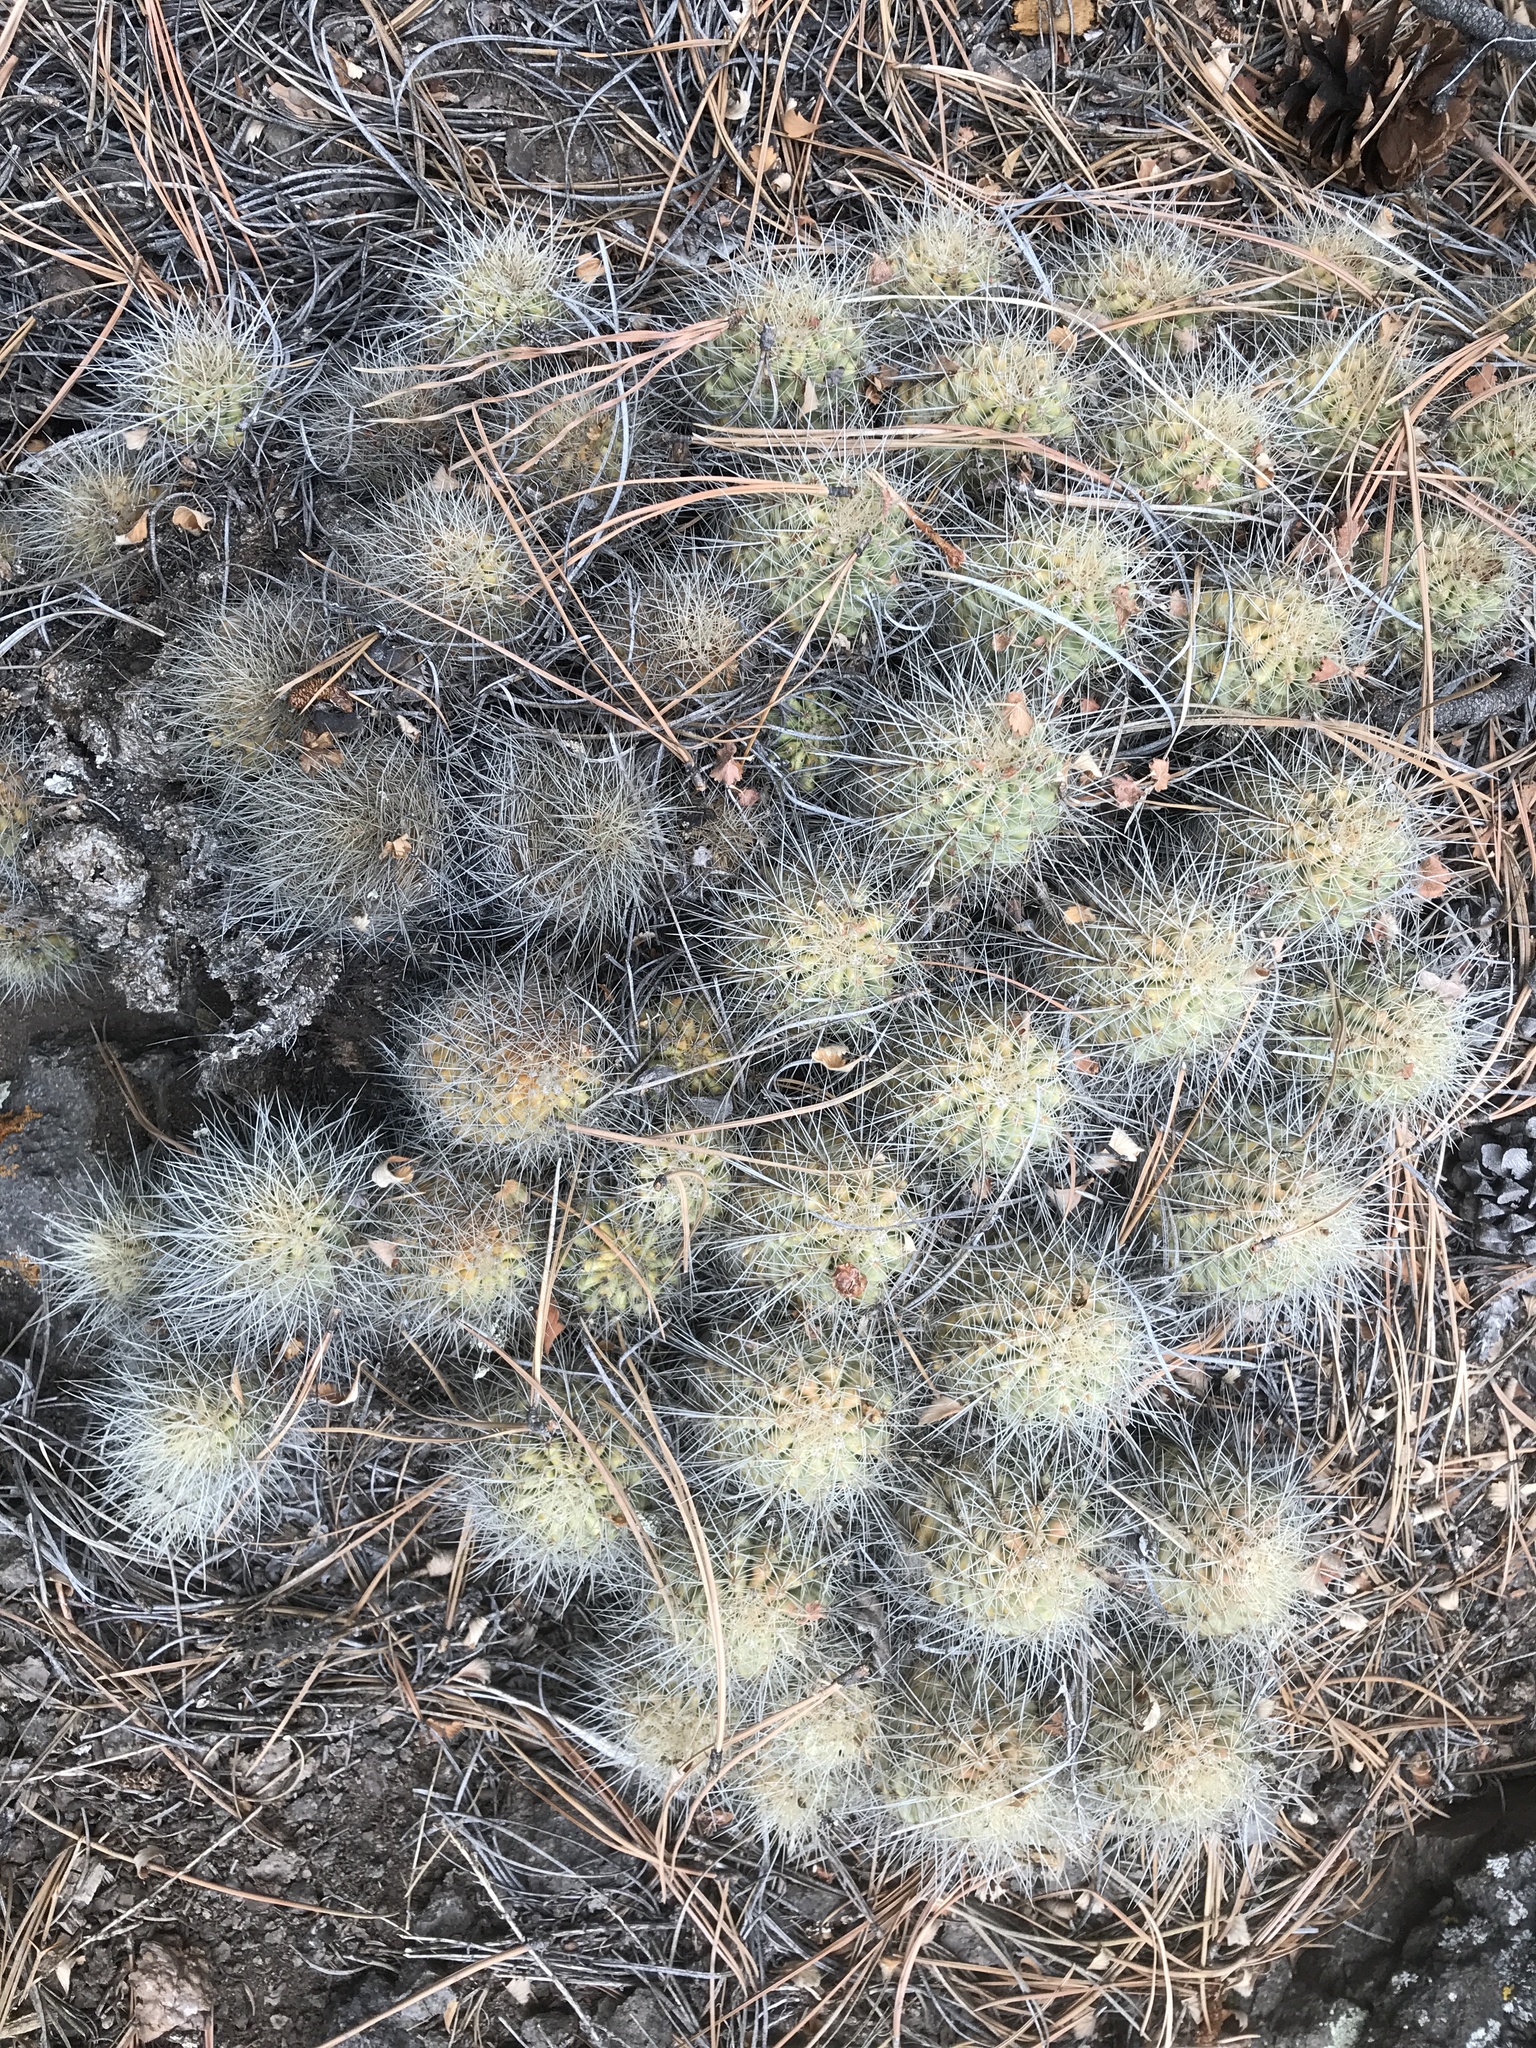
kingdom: Plantae
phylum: Tracheophyta
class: Magnoliopsida
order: Caryophyllales
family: Cactaceae
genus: Echinocereus
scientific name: Echinocereus coccineus
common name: Scarlet hedgehog cactus
